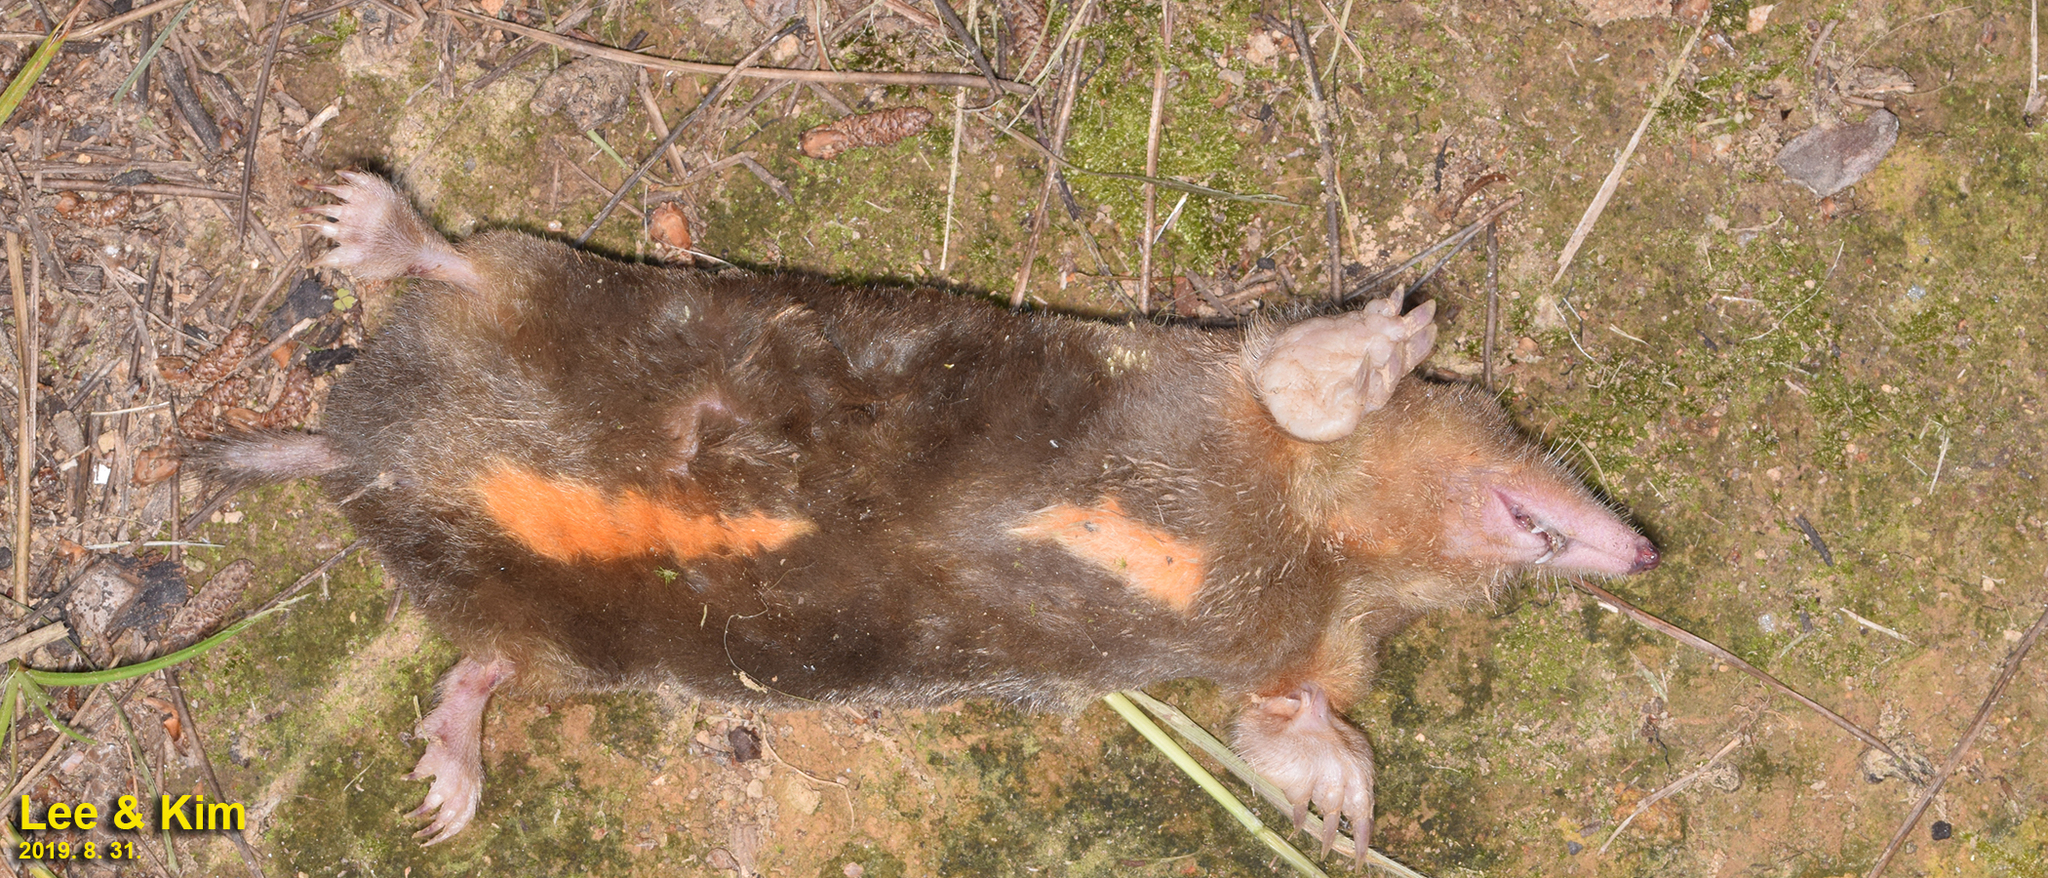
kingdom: Animalia
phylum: Chordata
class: Mammalia
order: Soricomorpha
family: Talpidae
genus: Mogera
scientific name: Mogera wogura
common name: Japanese mole
